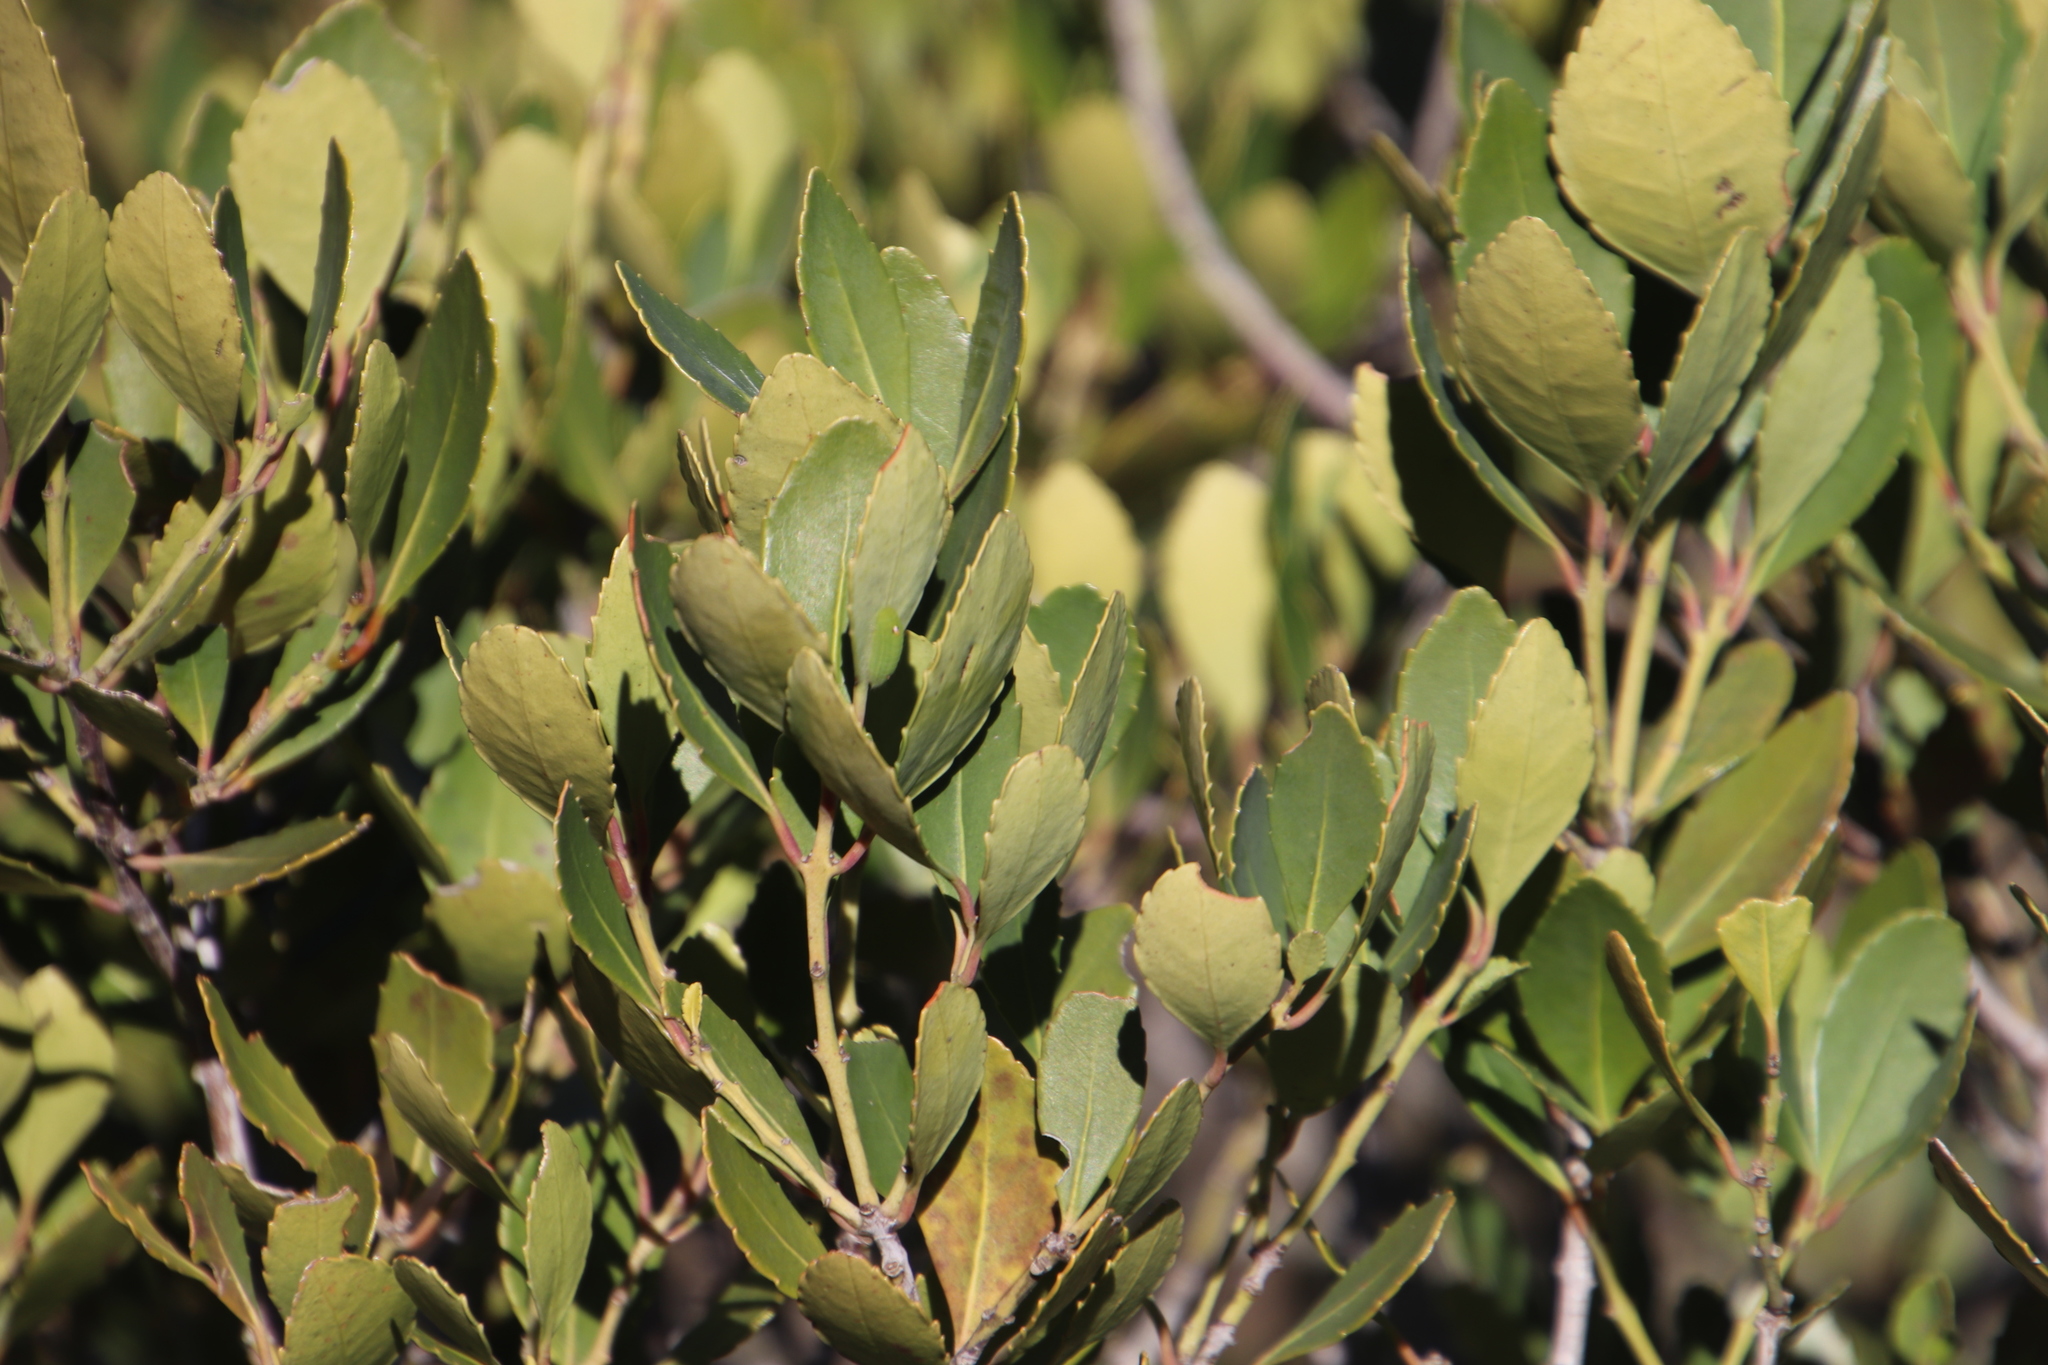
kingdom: Plantae
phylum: Tracheophyta
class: Magnoliopsida
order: Celastrales
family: Celastraceae
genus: Elaeodendron
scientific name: Elaeodendron schinoides
